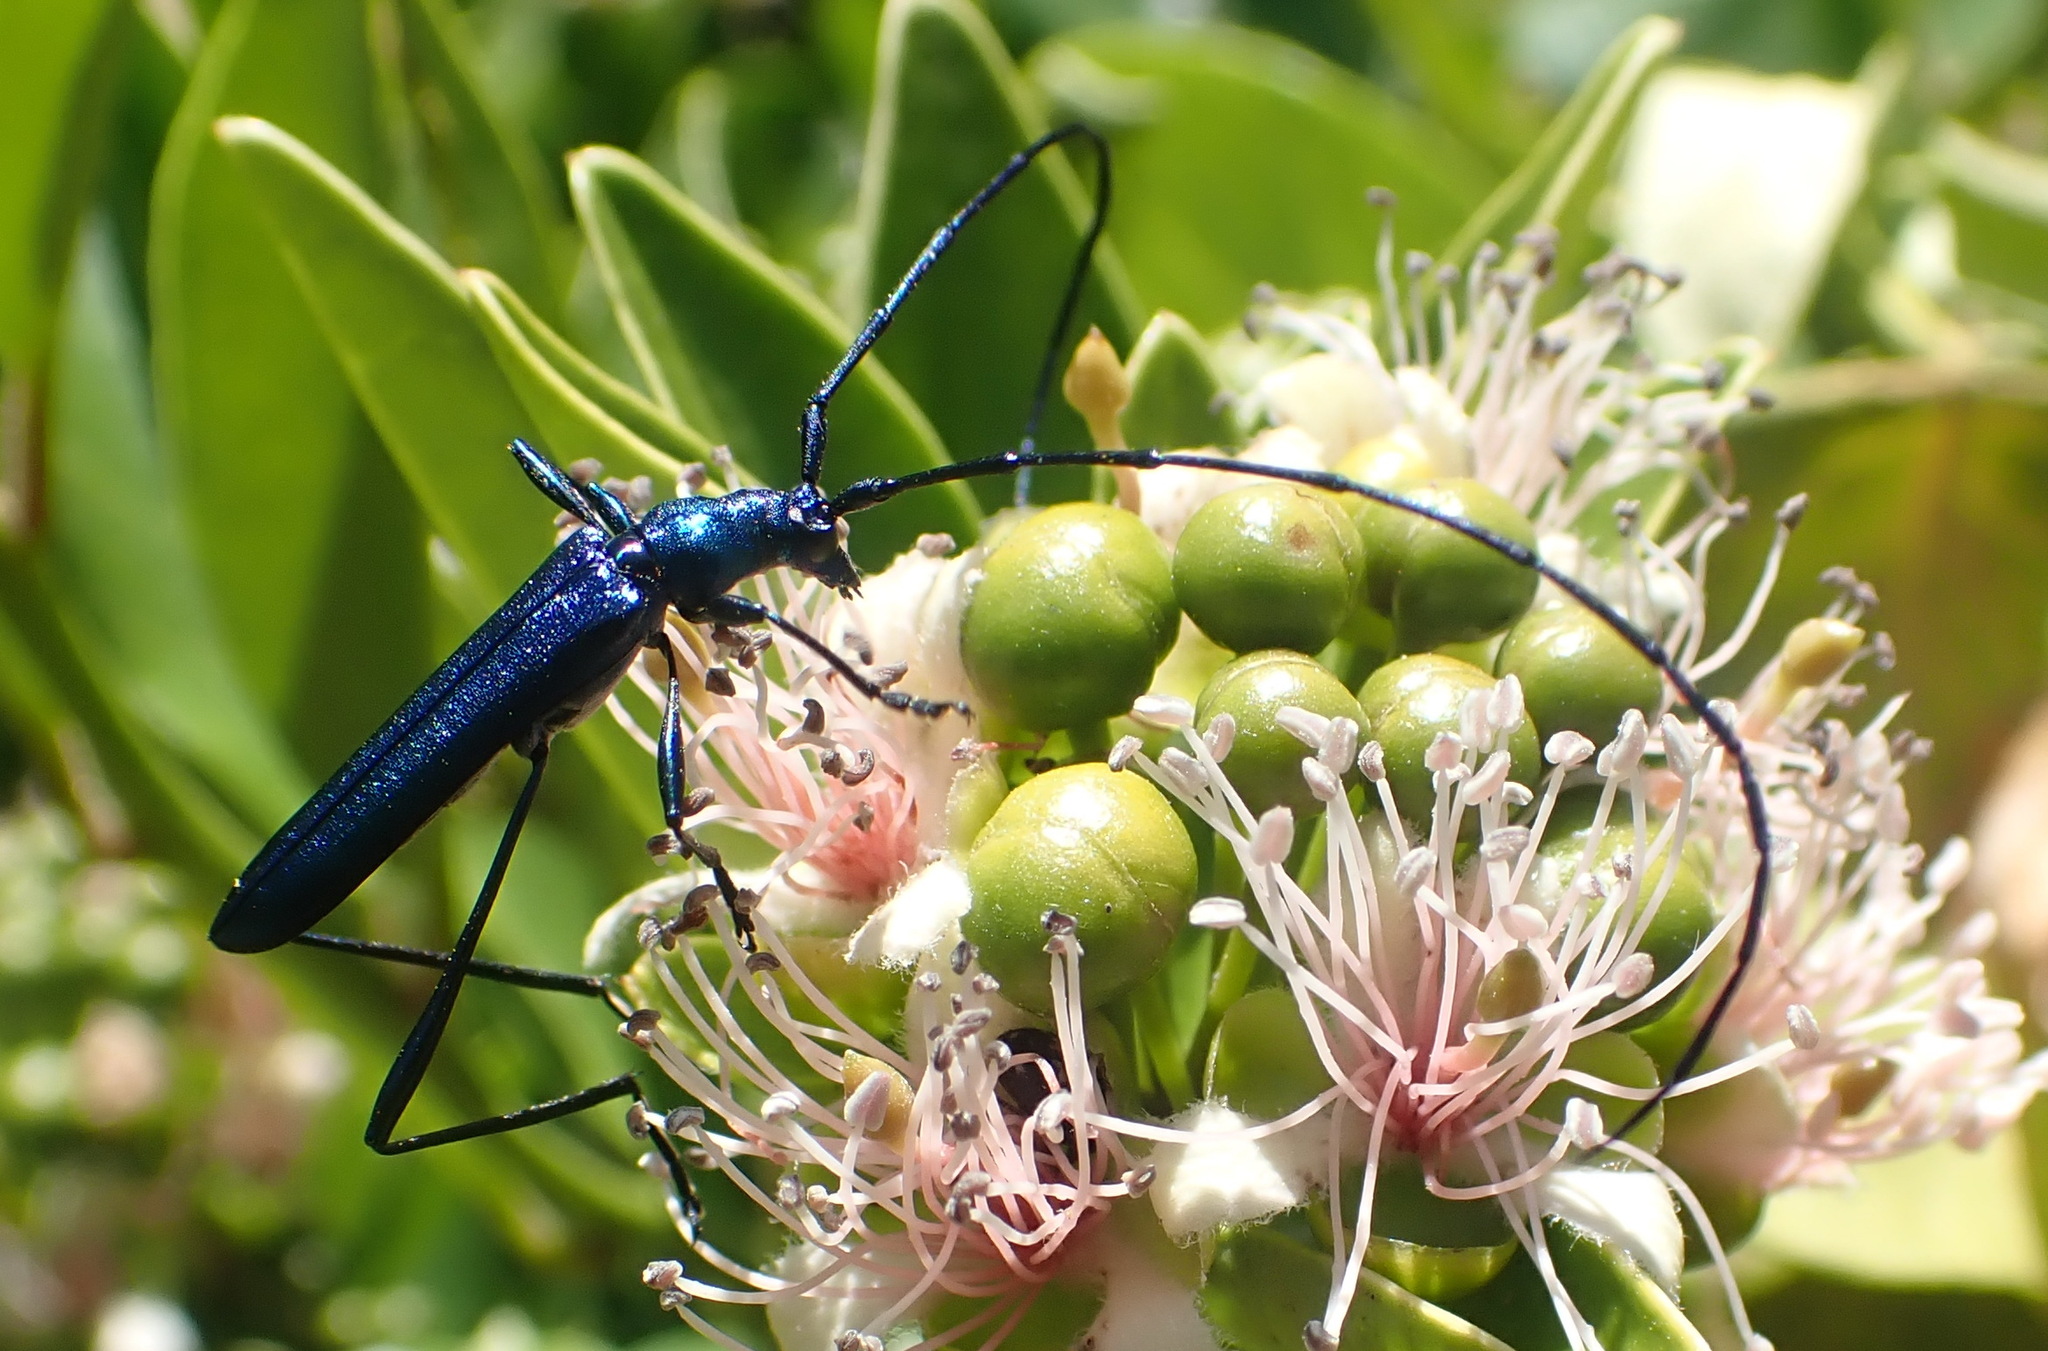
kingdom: Animalia
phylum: Arthropoda
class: Insecta
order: Coleoptera
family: Cerambycidae
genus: Promeces
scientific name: Promeces longipes
